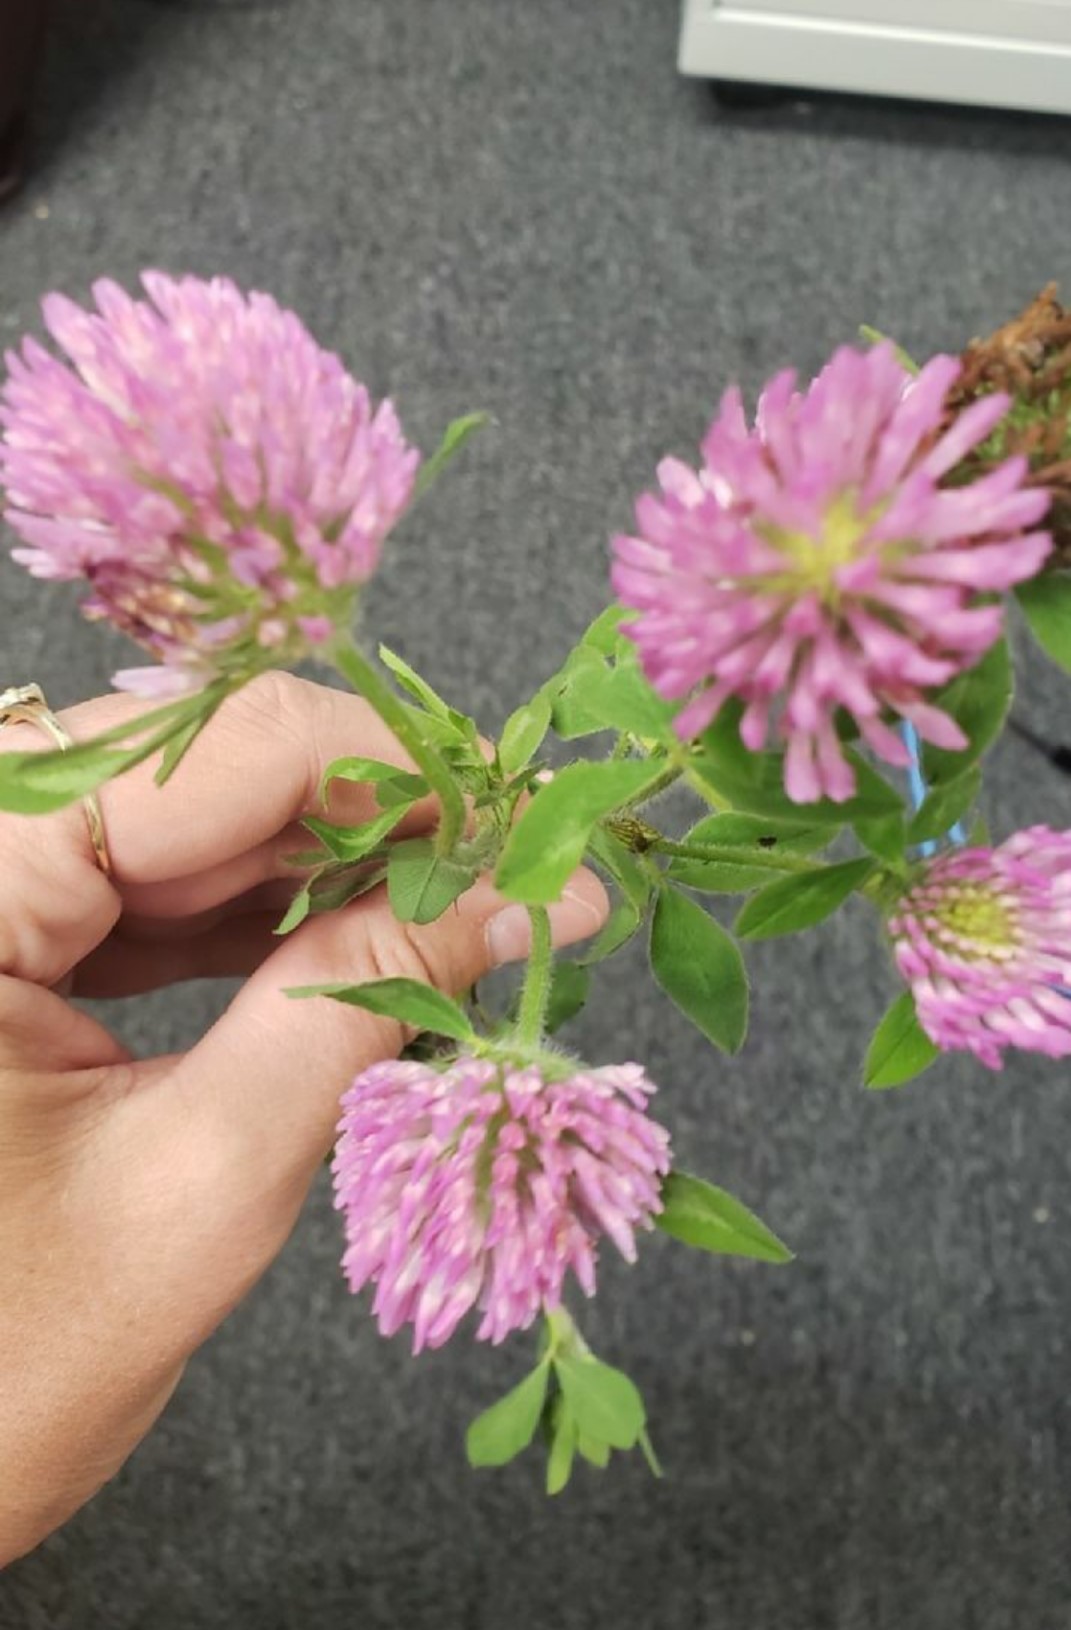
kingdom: Plantae
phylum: Tracheophyta
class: Magnoliopsida
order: Fabales
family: Fabaceae
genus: Trifolium
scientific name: Trifolium pratense
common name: Red clover
